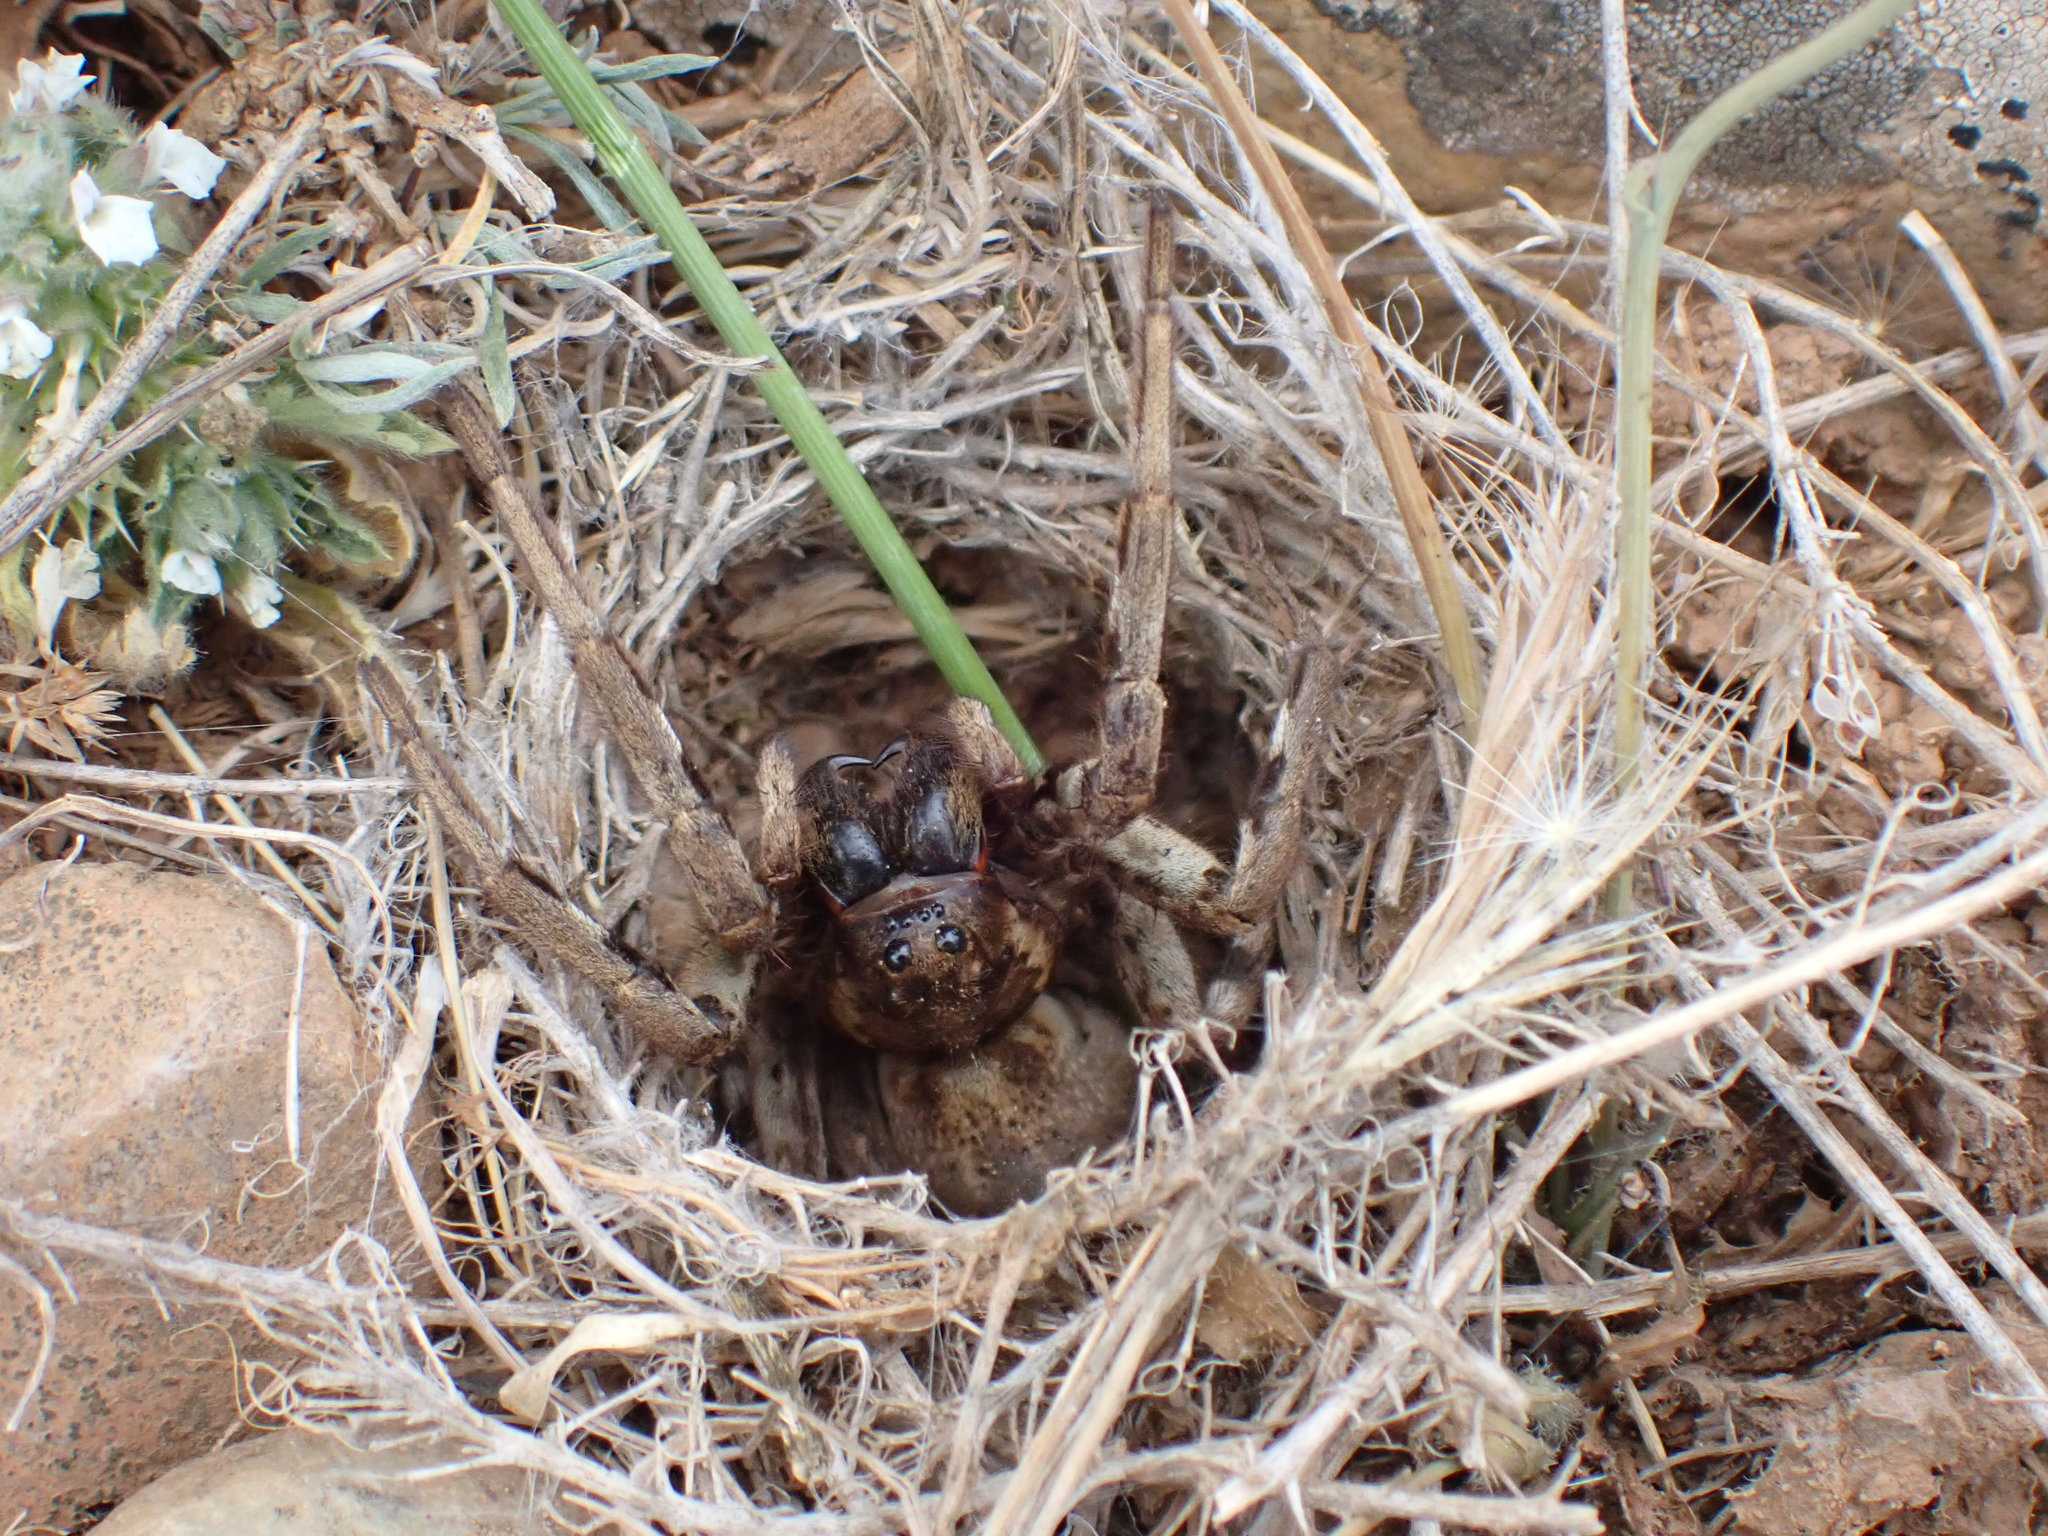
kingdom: Animalia
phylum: Arthropoda
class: Arachnida
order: Araneae
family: Lycosidae
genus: Lycosa
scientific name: Lycosa tarantula
